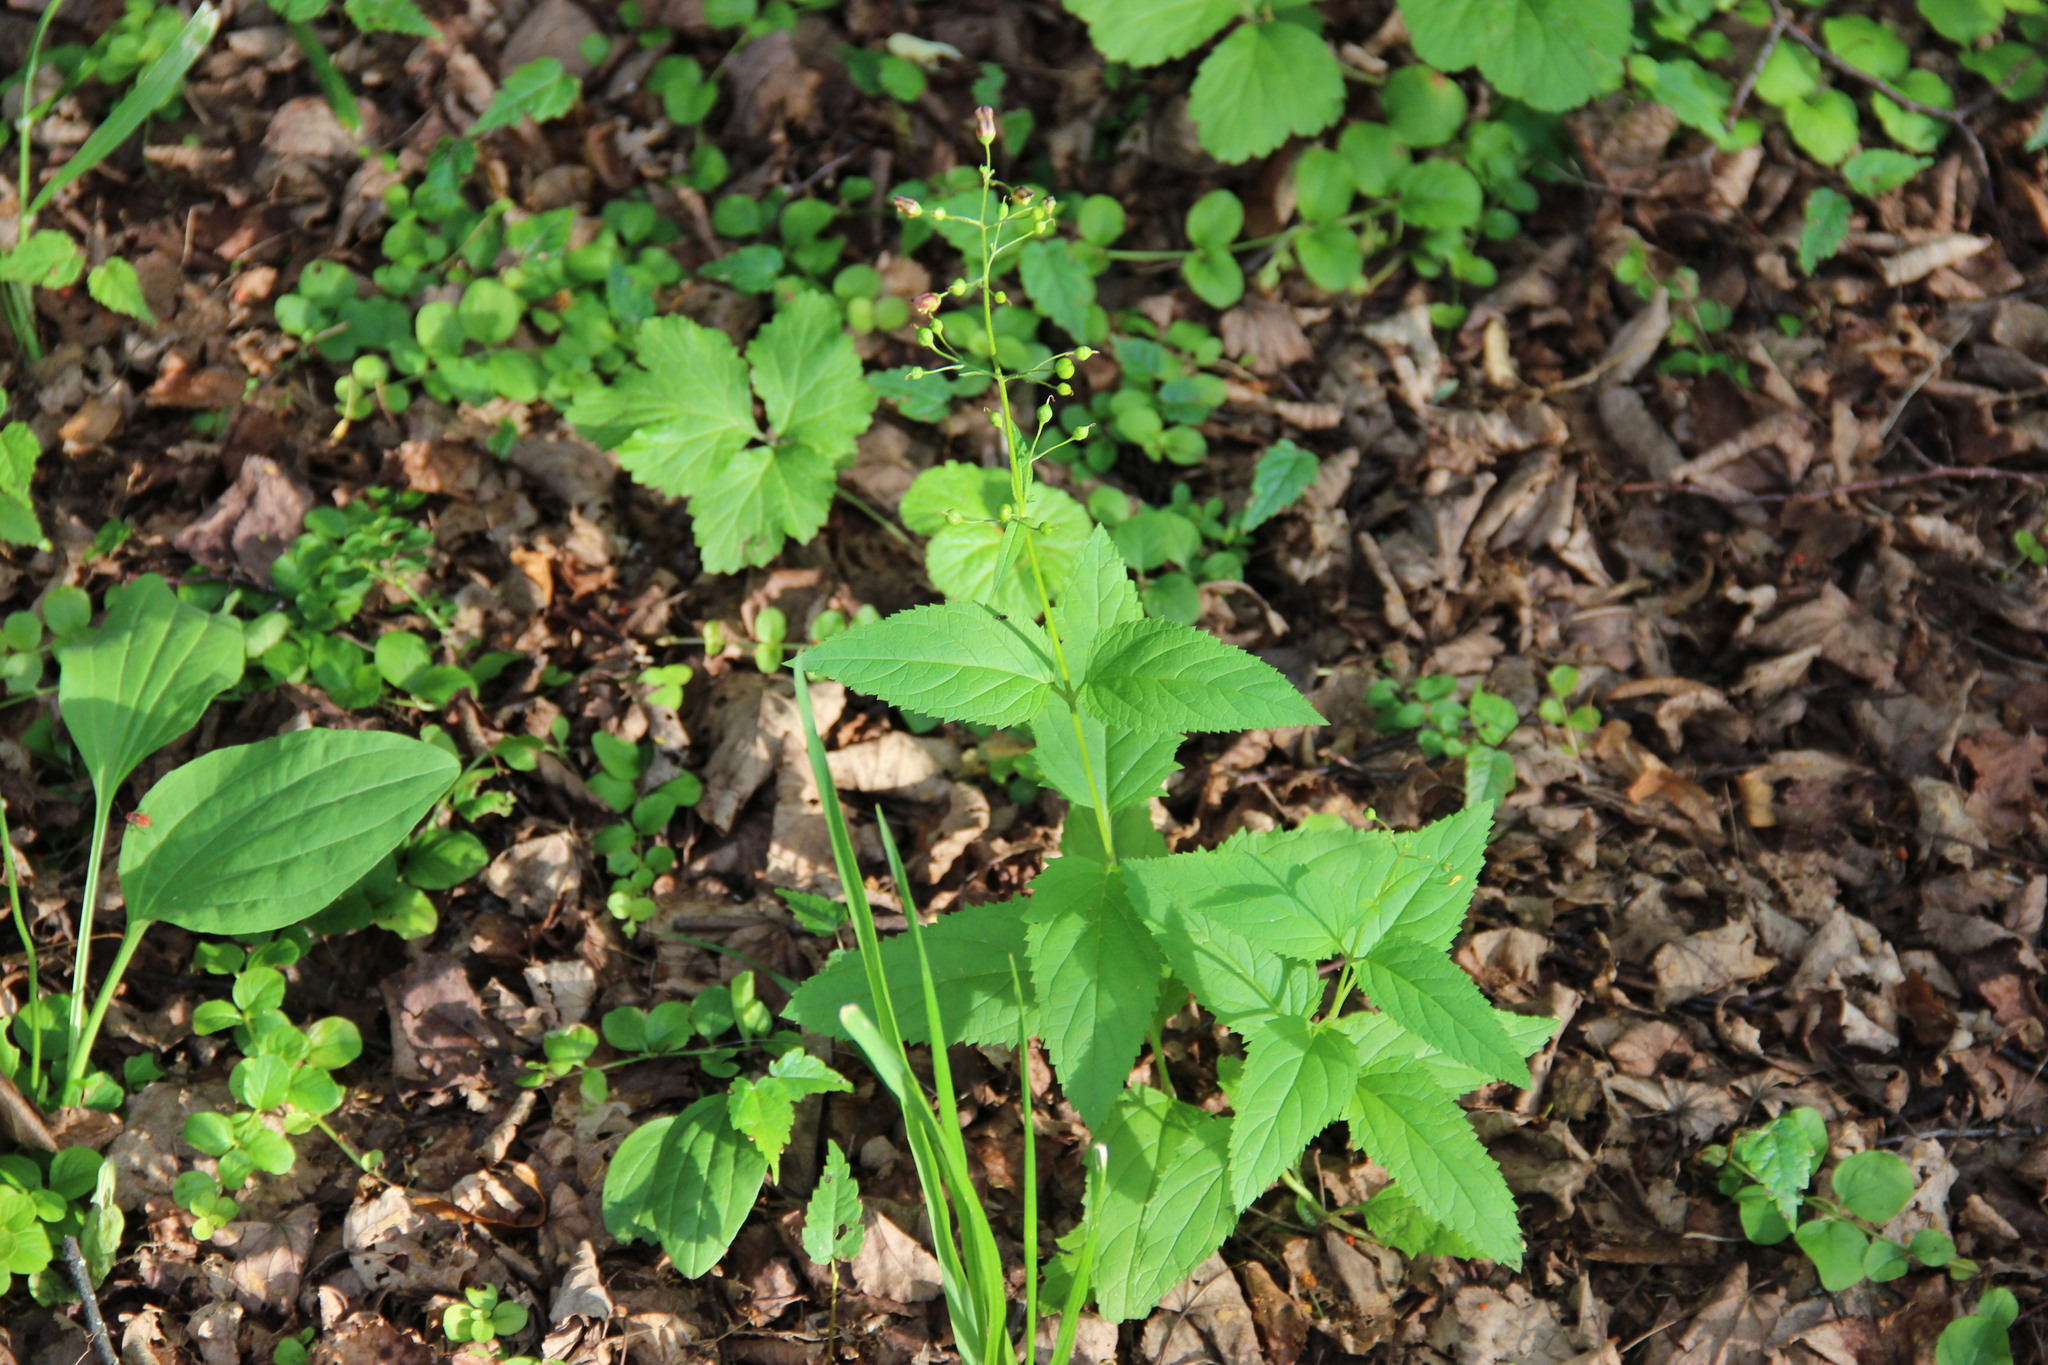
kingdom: Plantae
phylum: Tracheophyta
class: Magnoliopsida
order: Lamiales
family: Scrophulariaceae
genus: Scrophularia
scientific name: Scrophularia nodosa
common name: Common figwort
